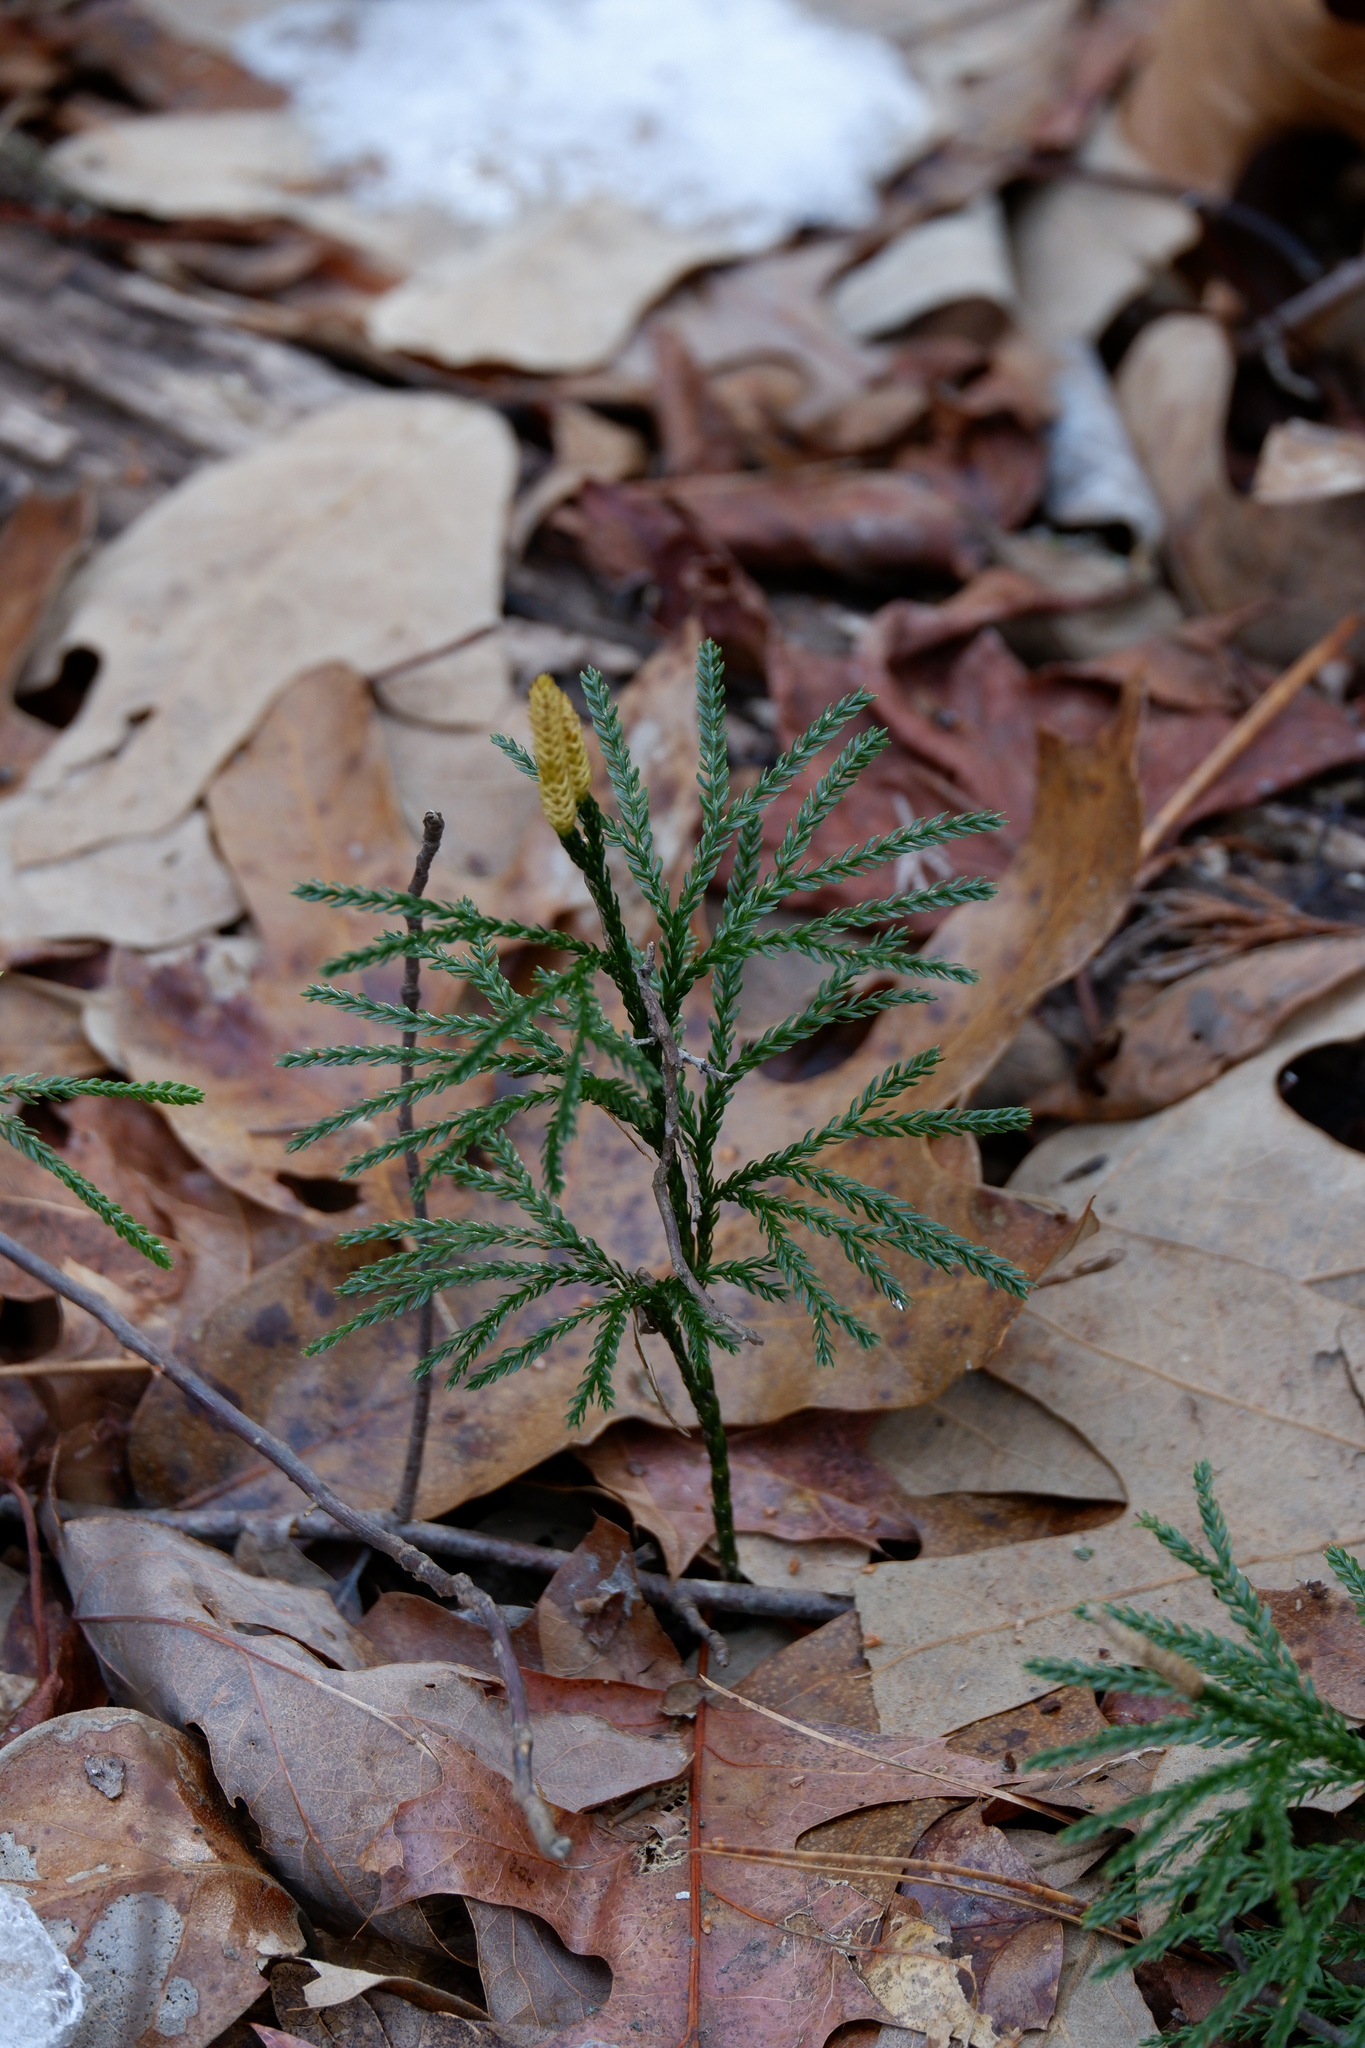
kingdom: Plantae
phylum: Tracheophyta
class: Lycopodiopsida
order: Lycopodiales
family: Lycopodiaceae
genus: Dendrolycopodium
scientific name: Dendrolycopodium obscurum
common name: Common ground-pine
